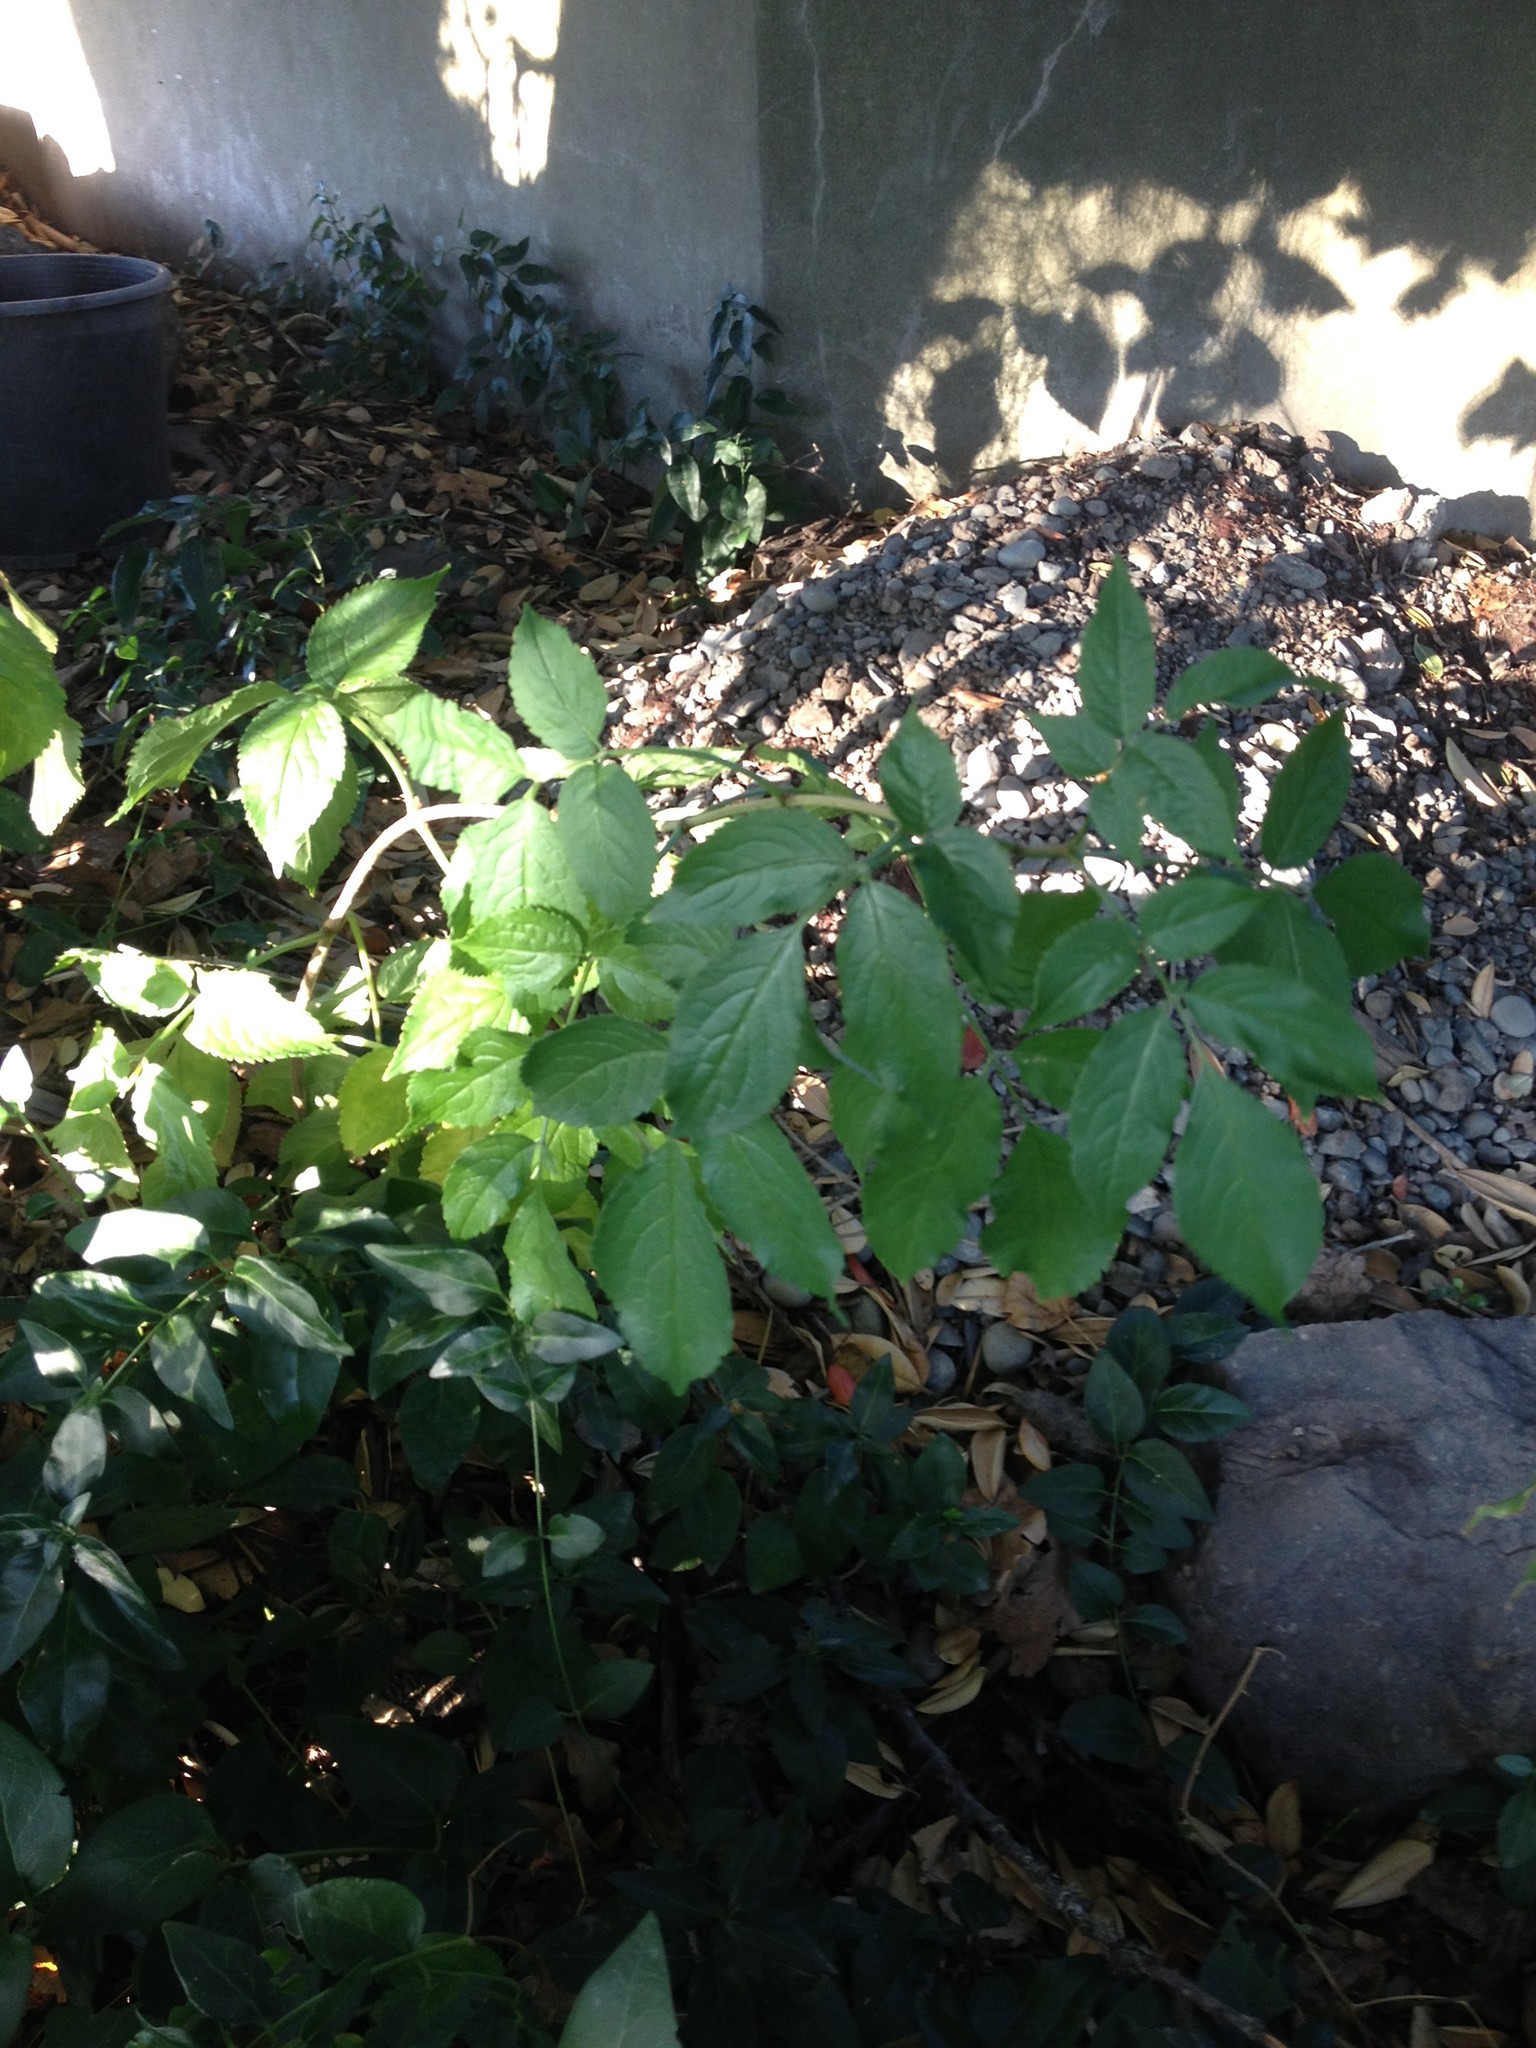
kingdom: Plantae
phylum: Tracheophyta
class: Magnoliopsida
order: Dipsacales
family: Viburnaceae
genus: Sambucus
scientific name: Sambucus nigra
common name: Elder
